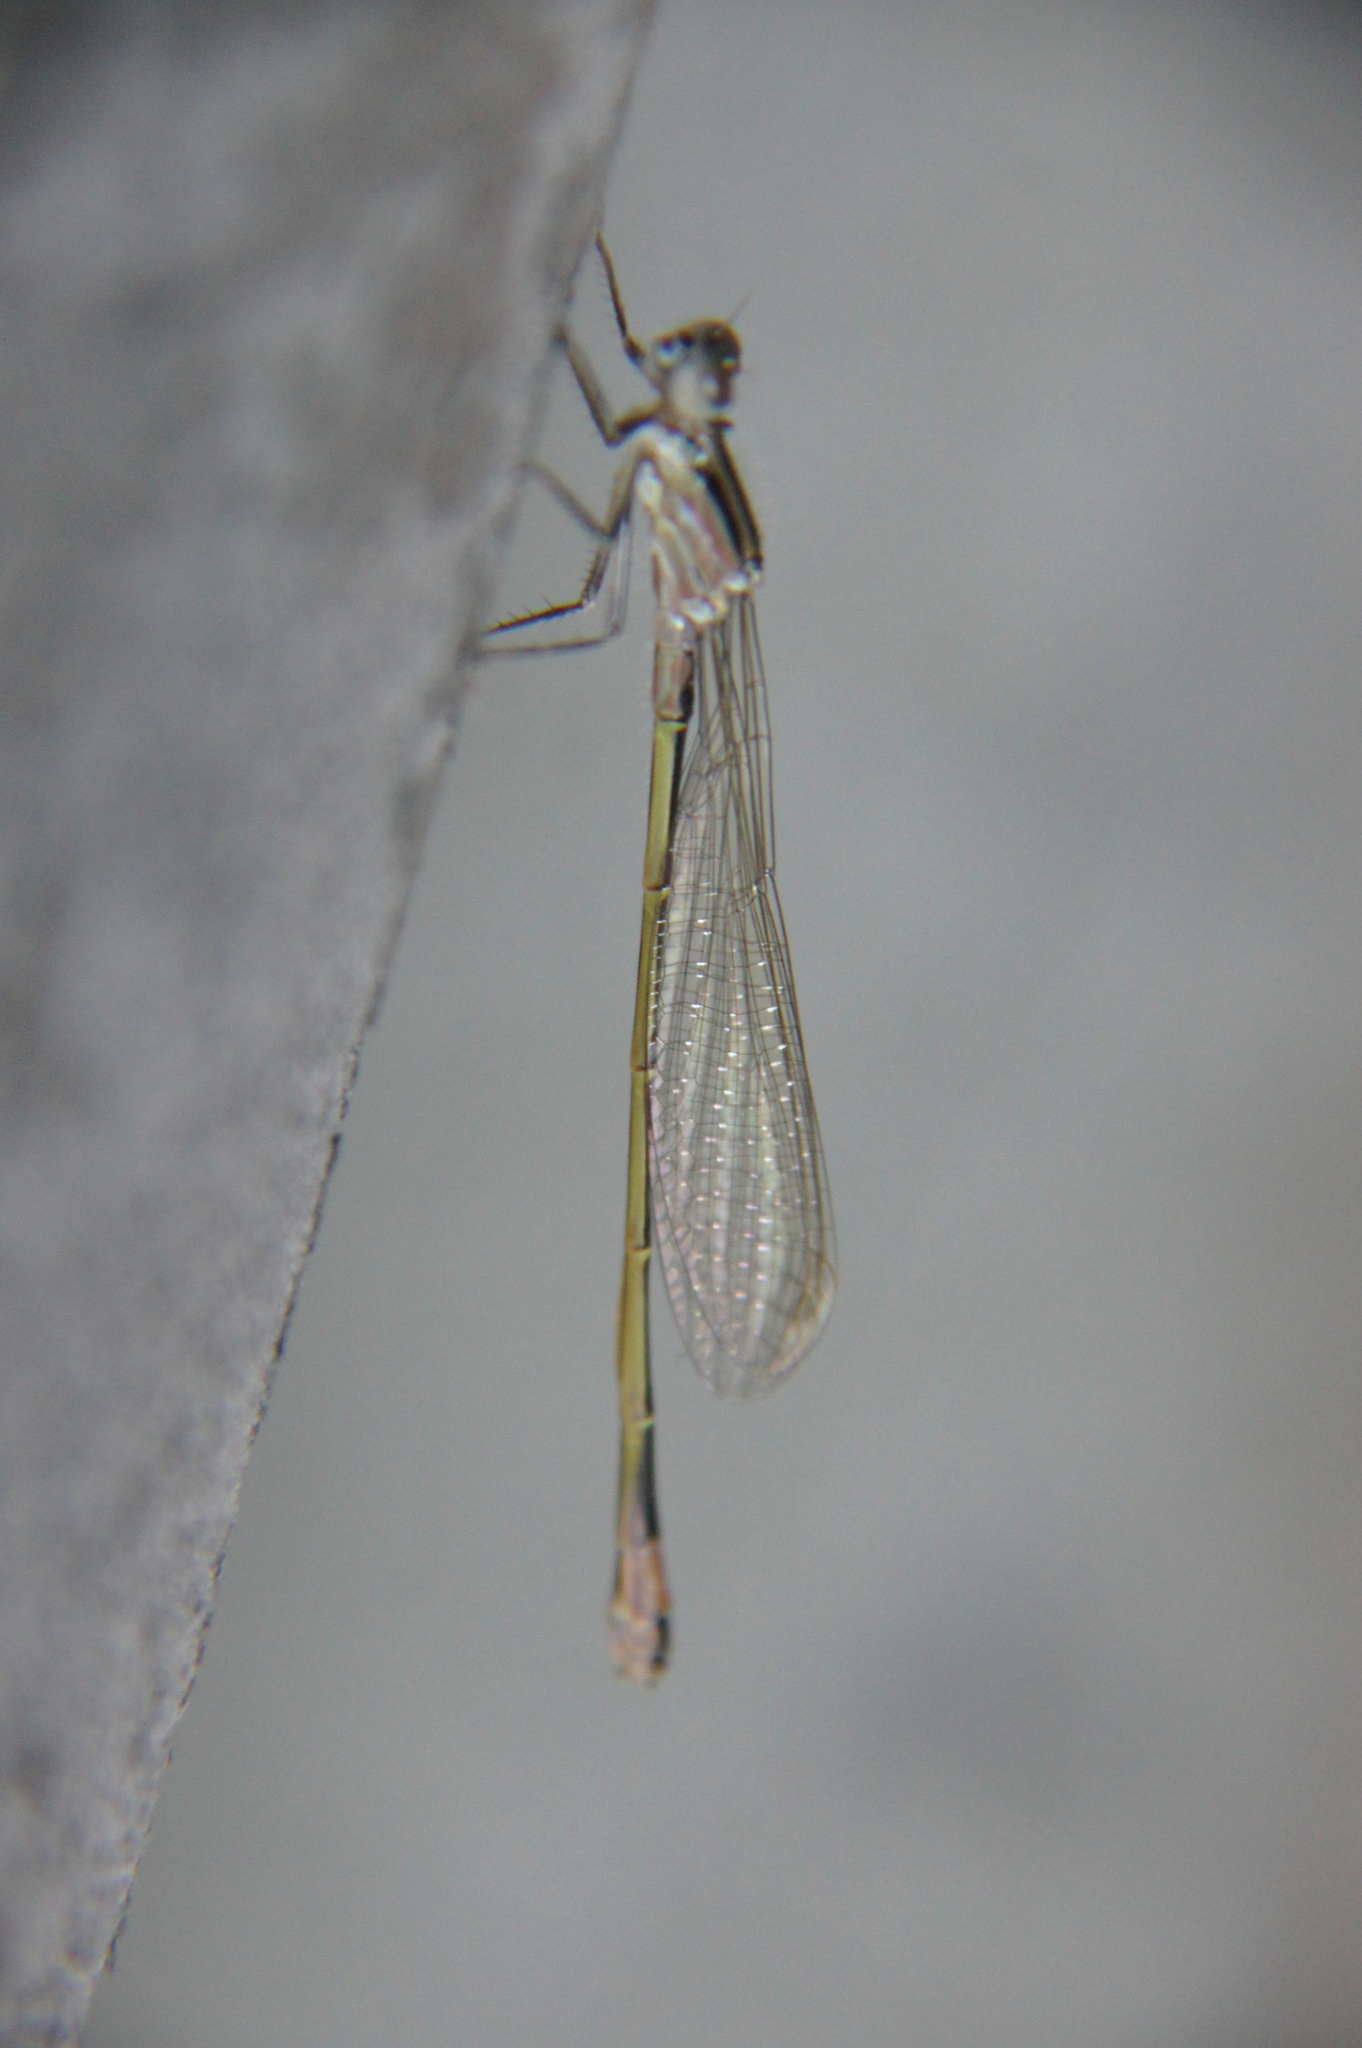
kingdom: Animalia
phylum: Arthropoda
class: Insecta
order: Odonata
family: Coenagrionidae
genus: Ischnura
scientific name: Ischnura elegans
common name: Blue-tailed damselfly
